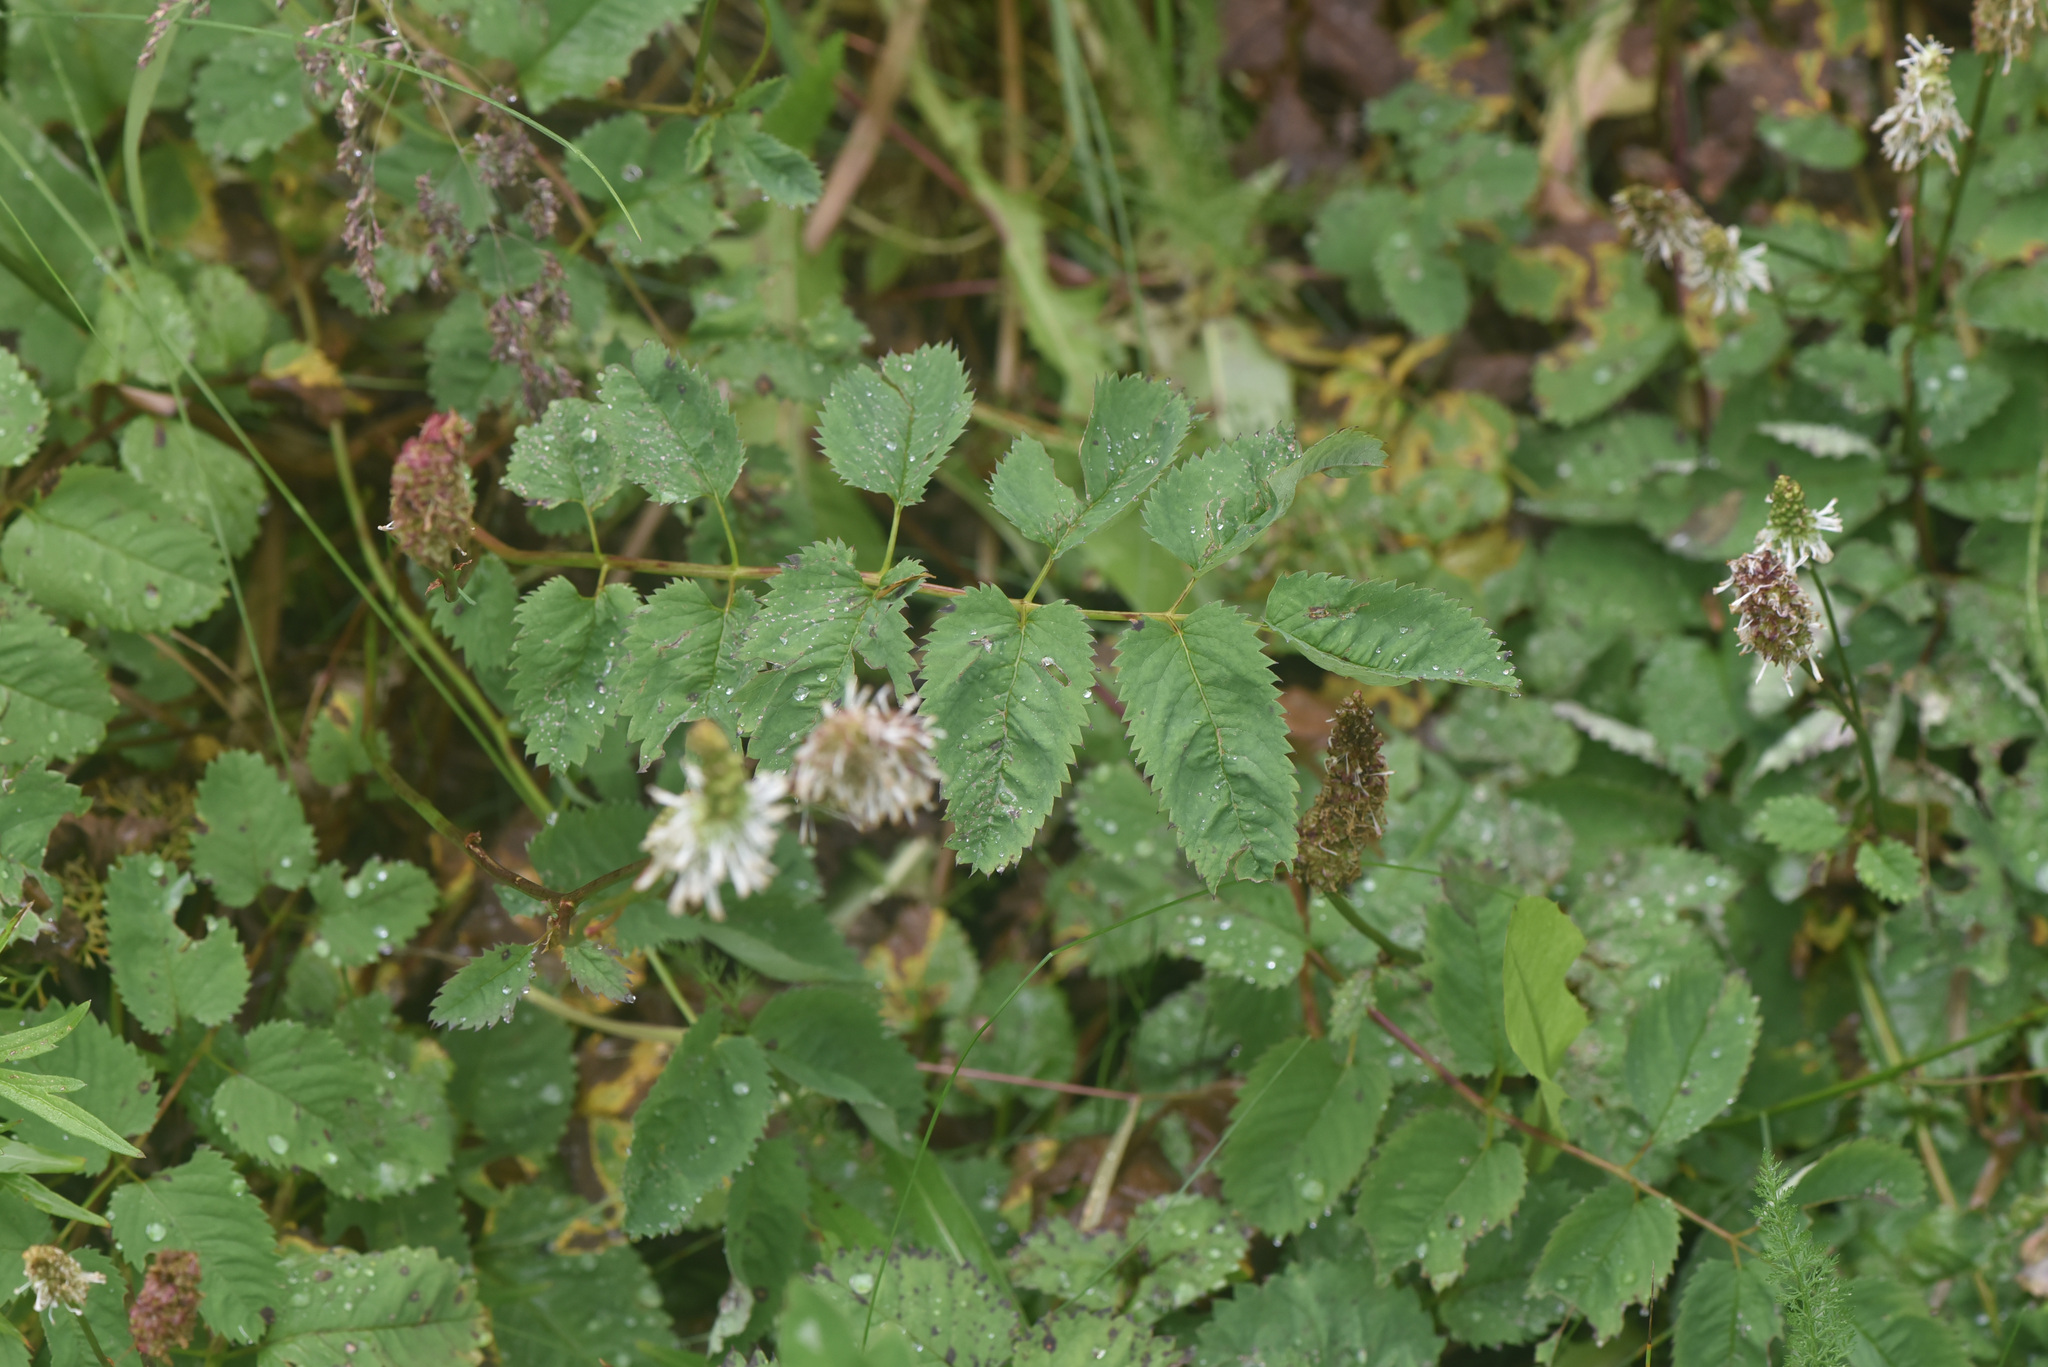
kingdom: Plantae
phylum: Tracheophyta
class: Magnoliopsida
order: Rosales
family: Rosaceae
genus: Sanguisorba
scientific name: Sanguisorba stipulata
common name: Sitka burnet
